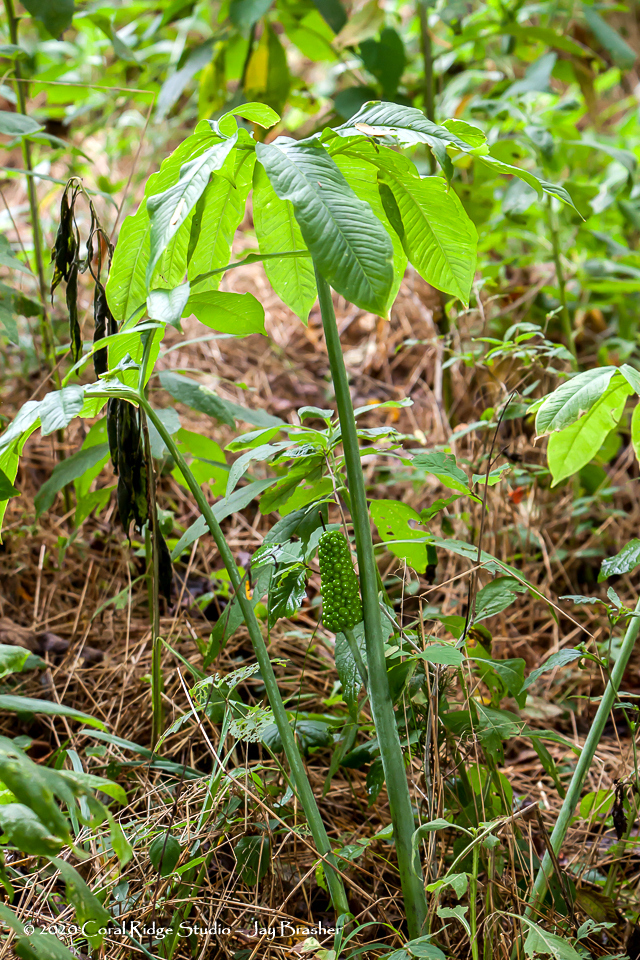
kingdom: Plantae
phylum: Tracheophyta
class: Liliopsida
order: Alismatales
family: Araceae
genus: Arisaema
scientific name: Arisaema dracontium
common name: Dragon-arum
